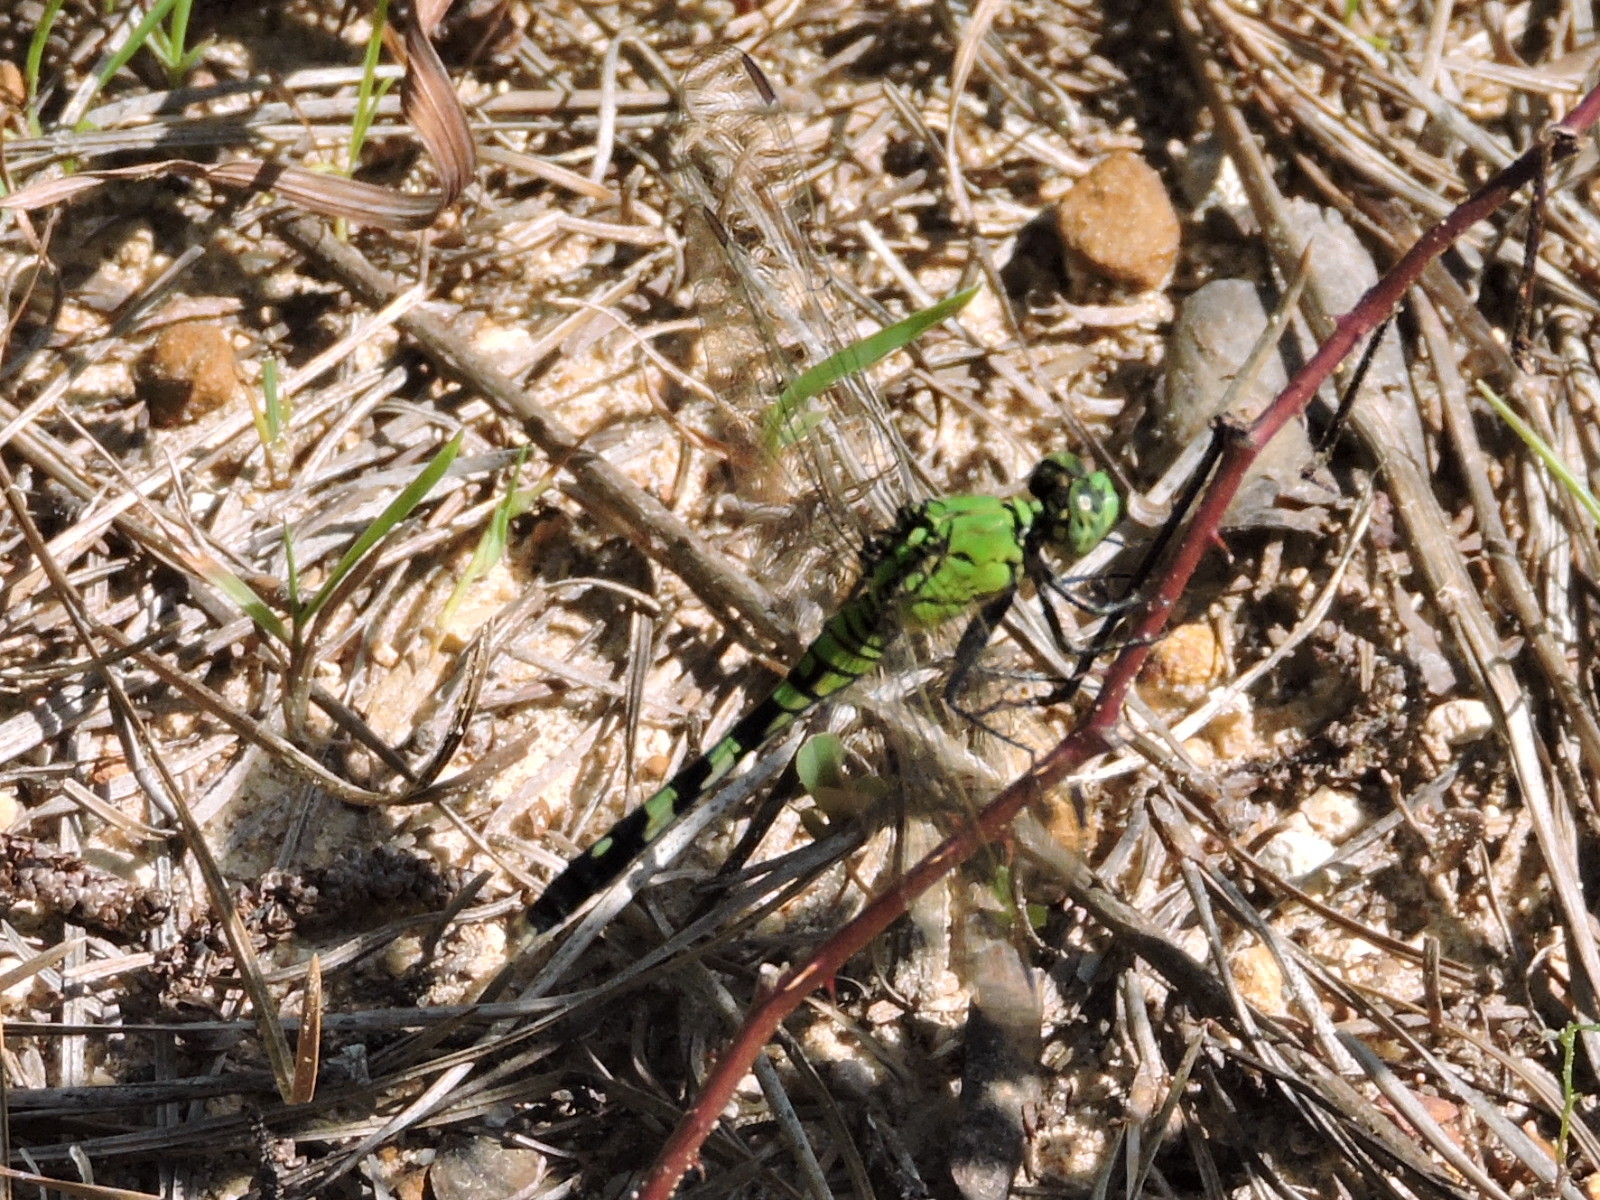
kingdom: Animalia
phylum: Arthropoda
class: Insecta
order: Odonata
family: Libellulidae
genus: Erythemis
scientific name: Erythemis simplicicollis
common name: Eastern pondhawk
